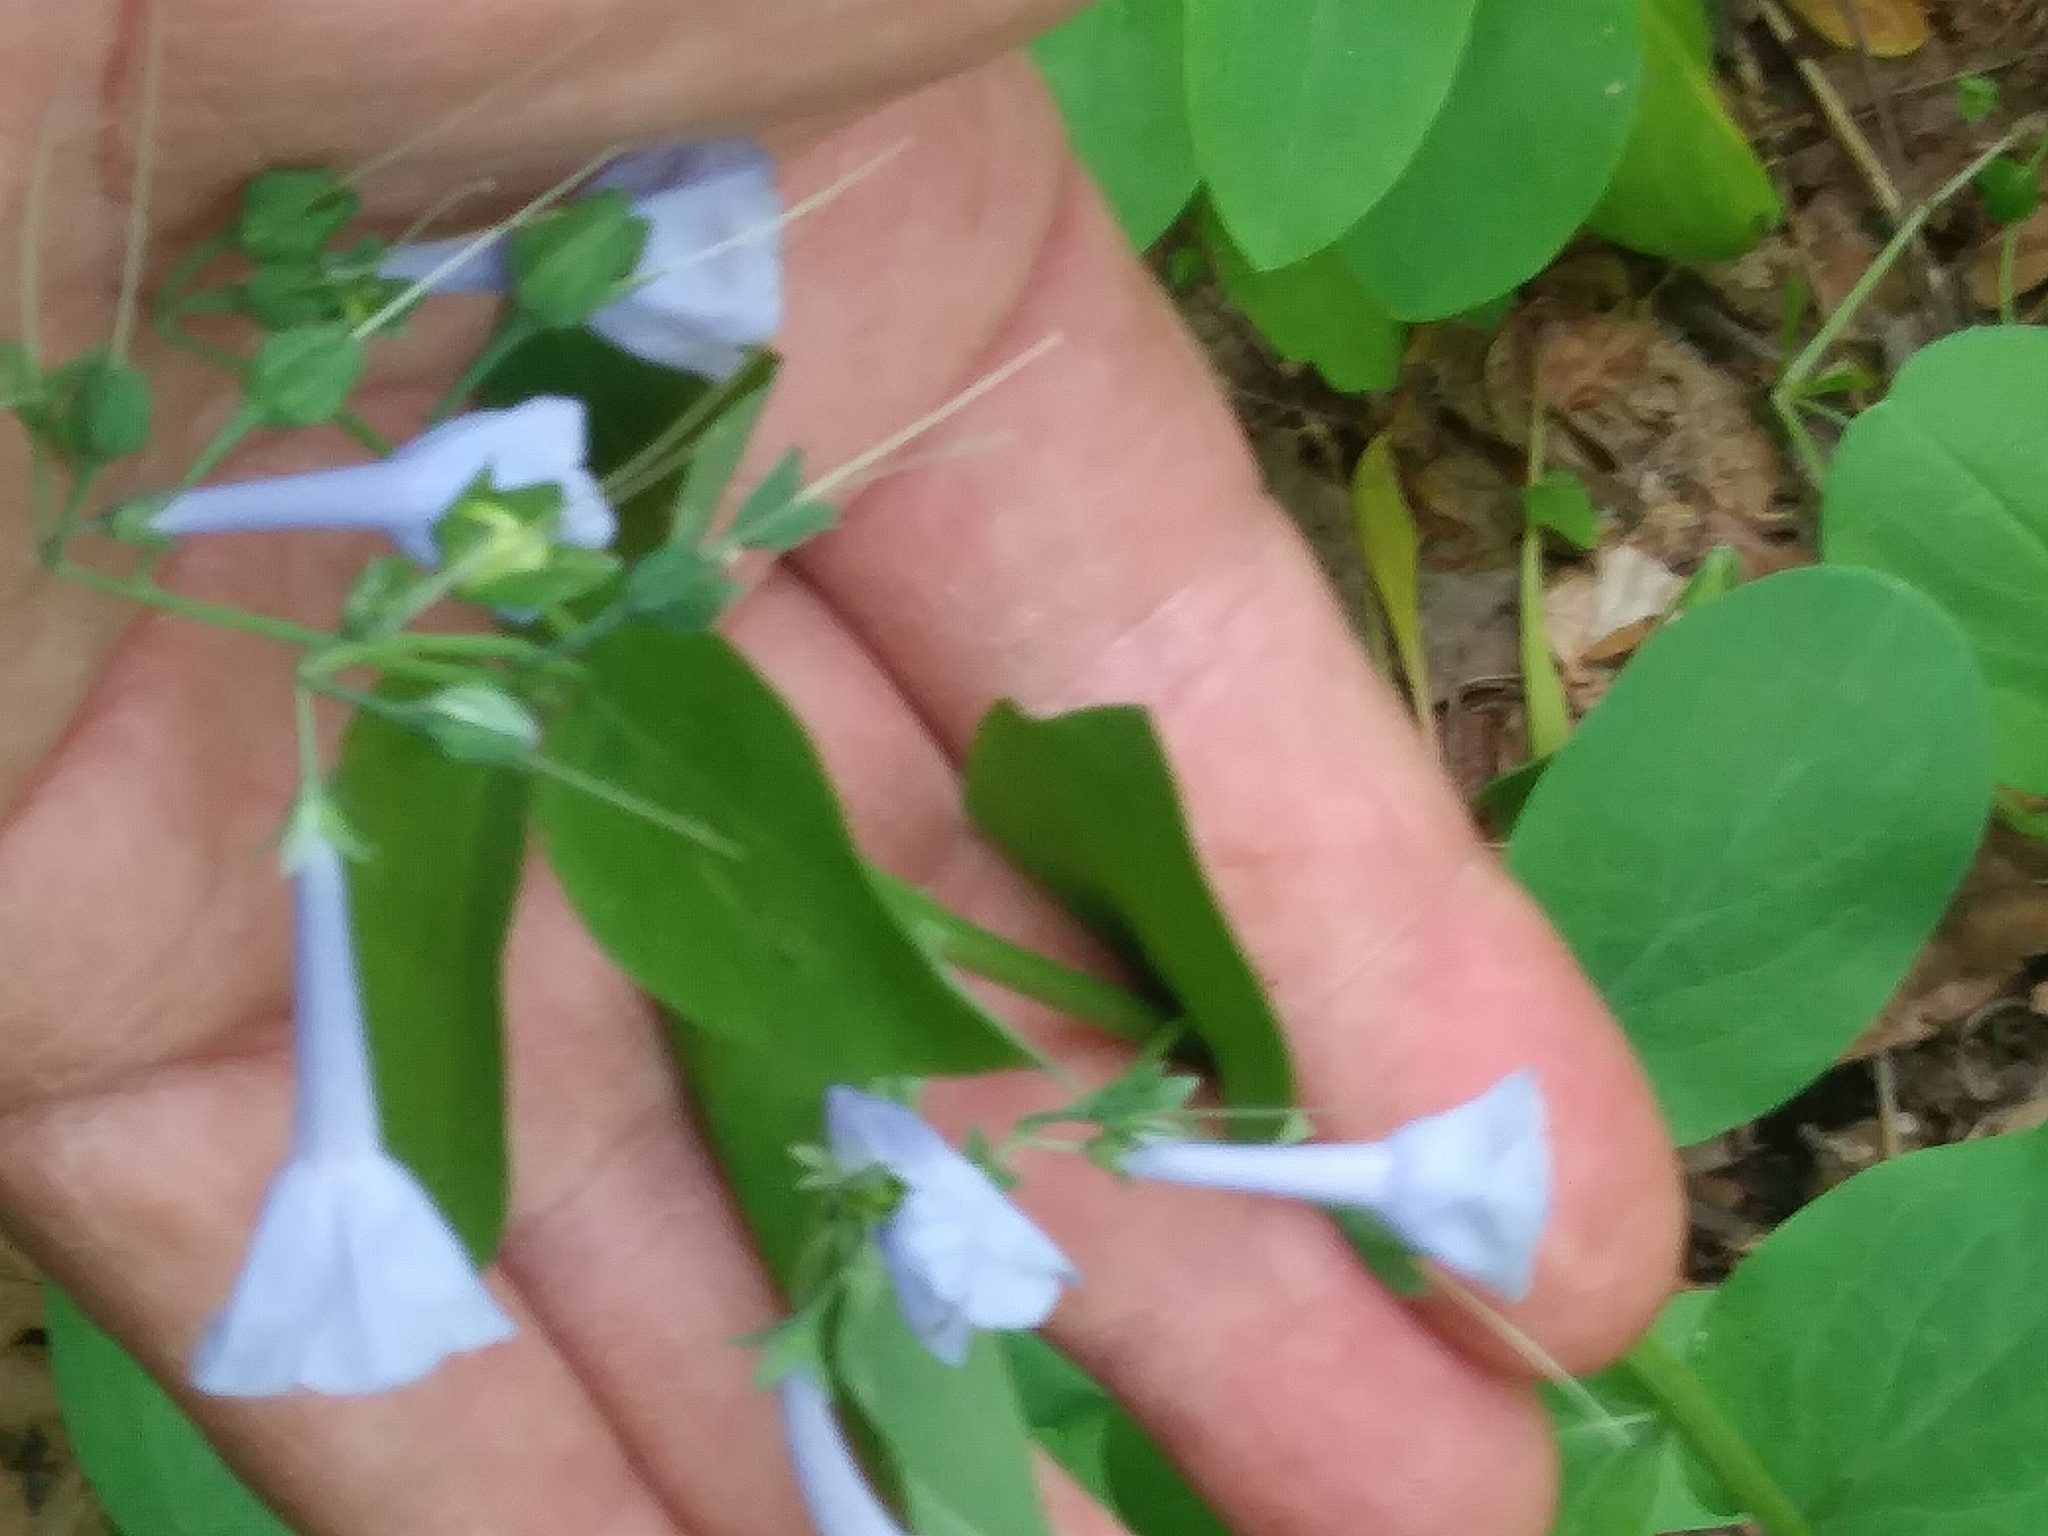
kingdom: Plantae
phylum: Tracheophyta
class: Magnoliopsida
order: Boraginales
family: Boraginaceae
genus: Mertensia
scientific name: Mertensia virginica
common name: Virginia bluebells
